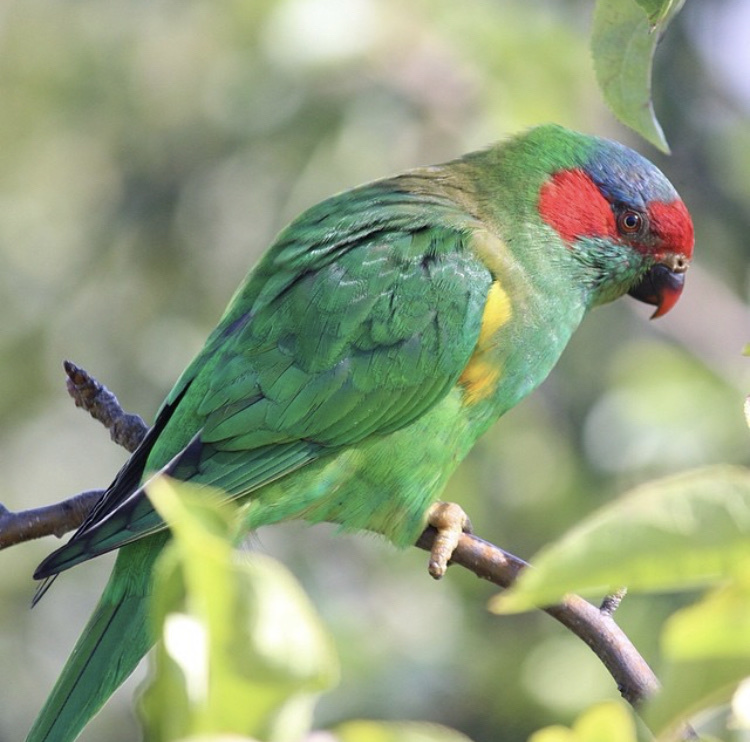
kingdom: Animalia
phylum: Chordata
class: Aves
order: Psittaciformes
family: Psittacidae
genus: Glossopsitta
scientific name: Glossopsitta concinna
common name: Musk lorikeet
